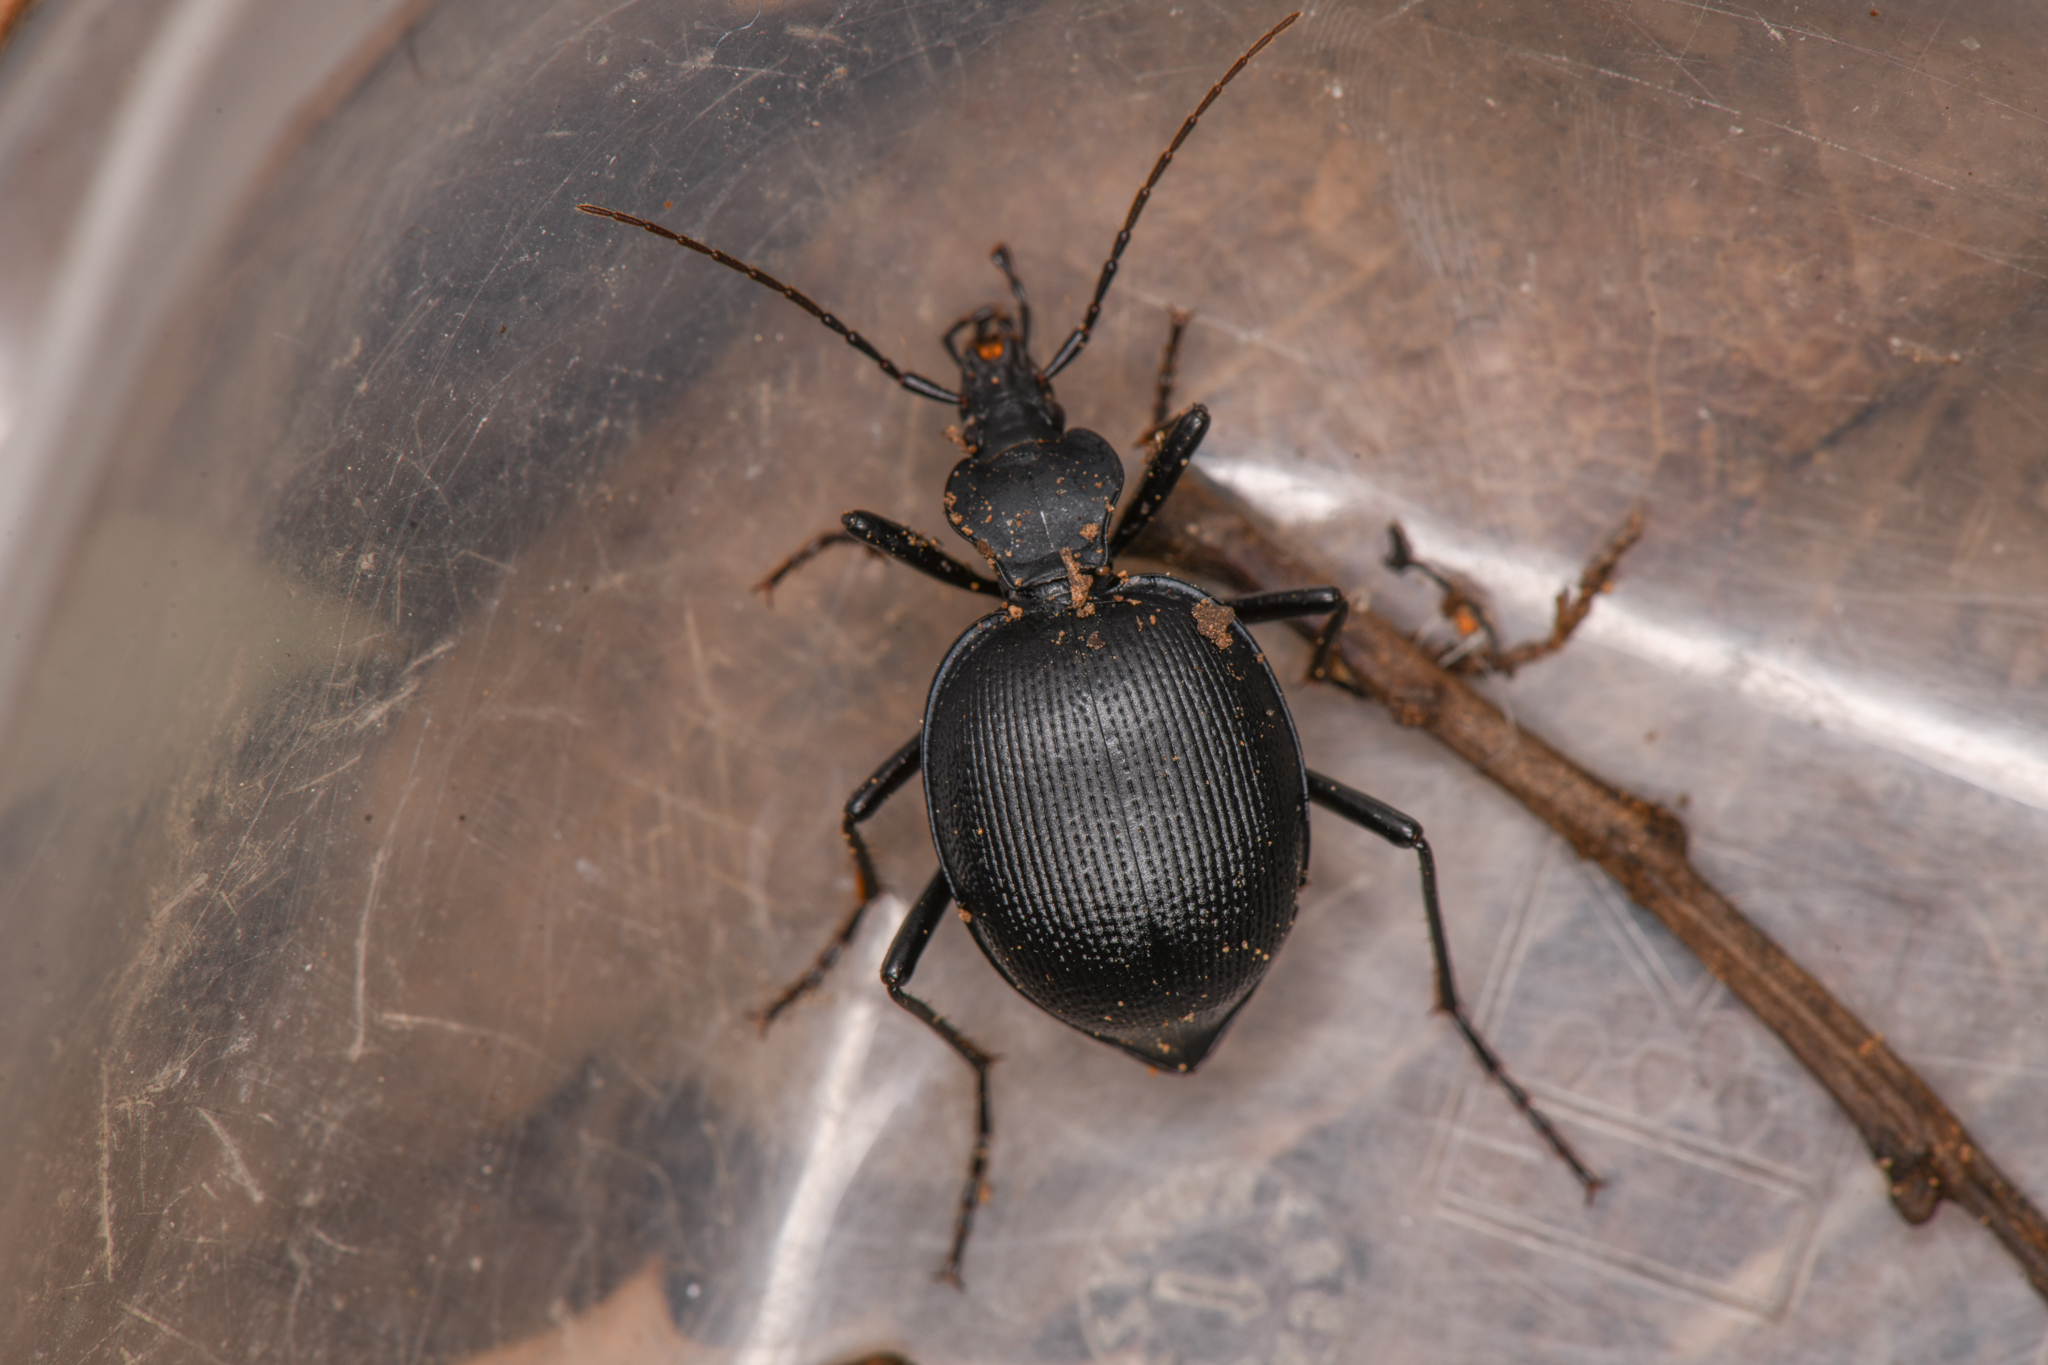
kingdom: Animalia
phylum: Arthropoda
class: Insecta
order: Coleoptera
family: Carabidae
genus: Scaphinotus
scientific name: Scaphinotus ventricosus
